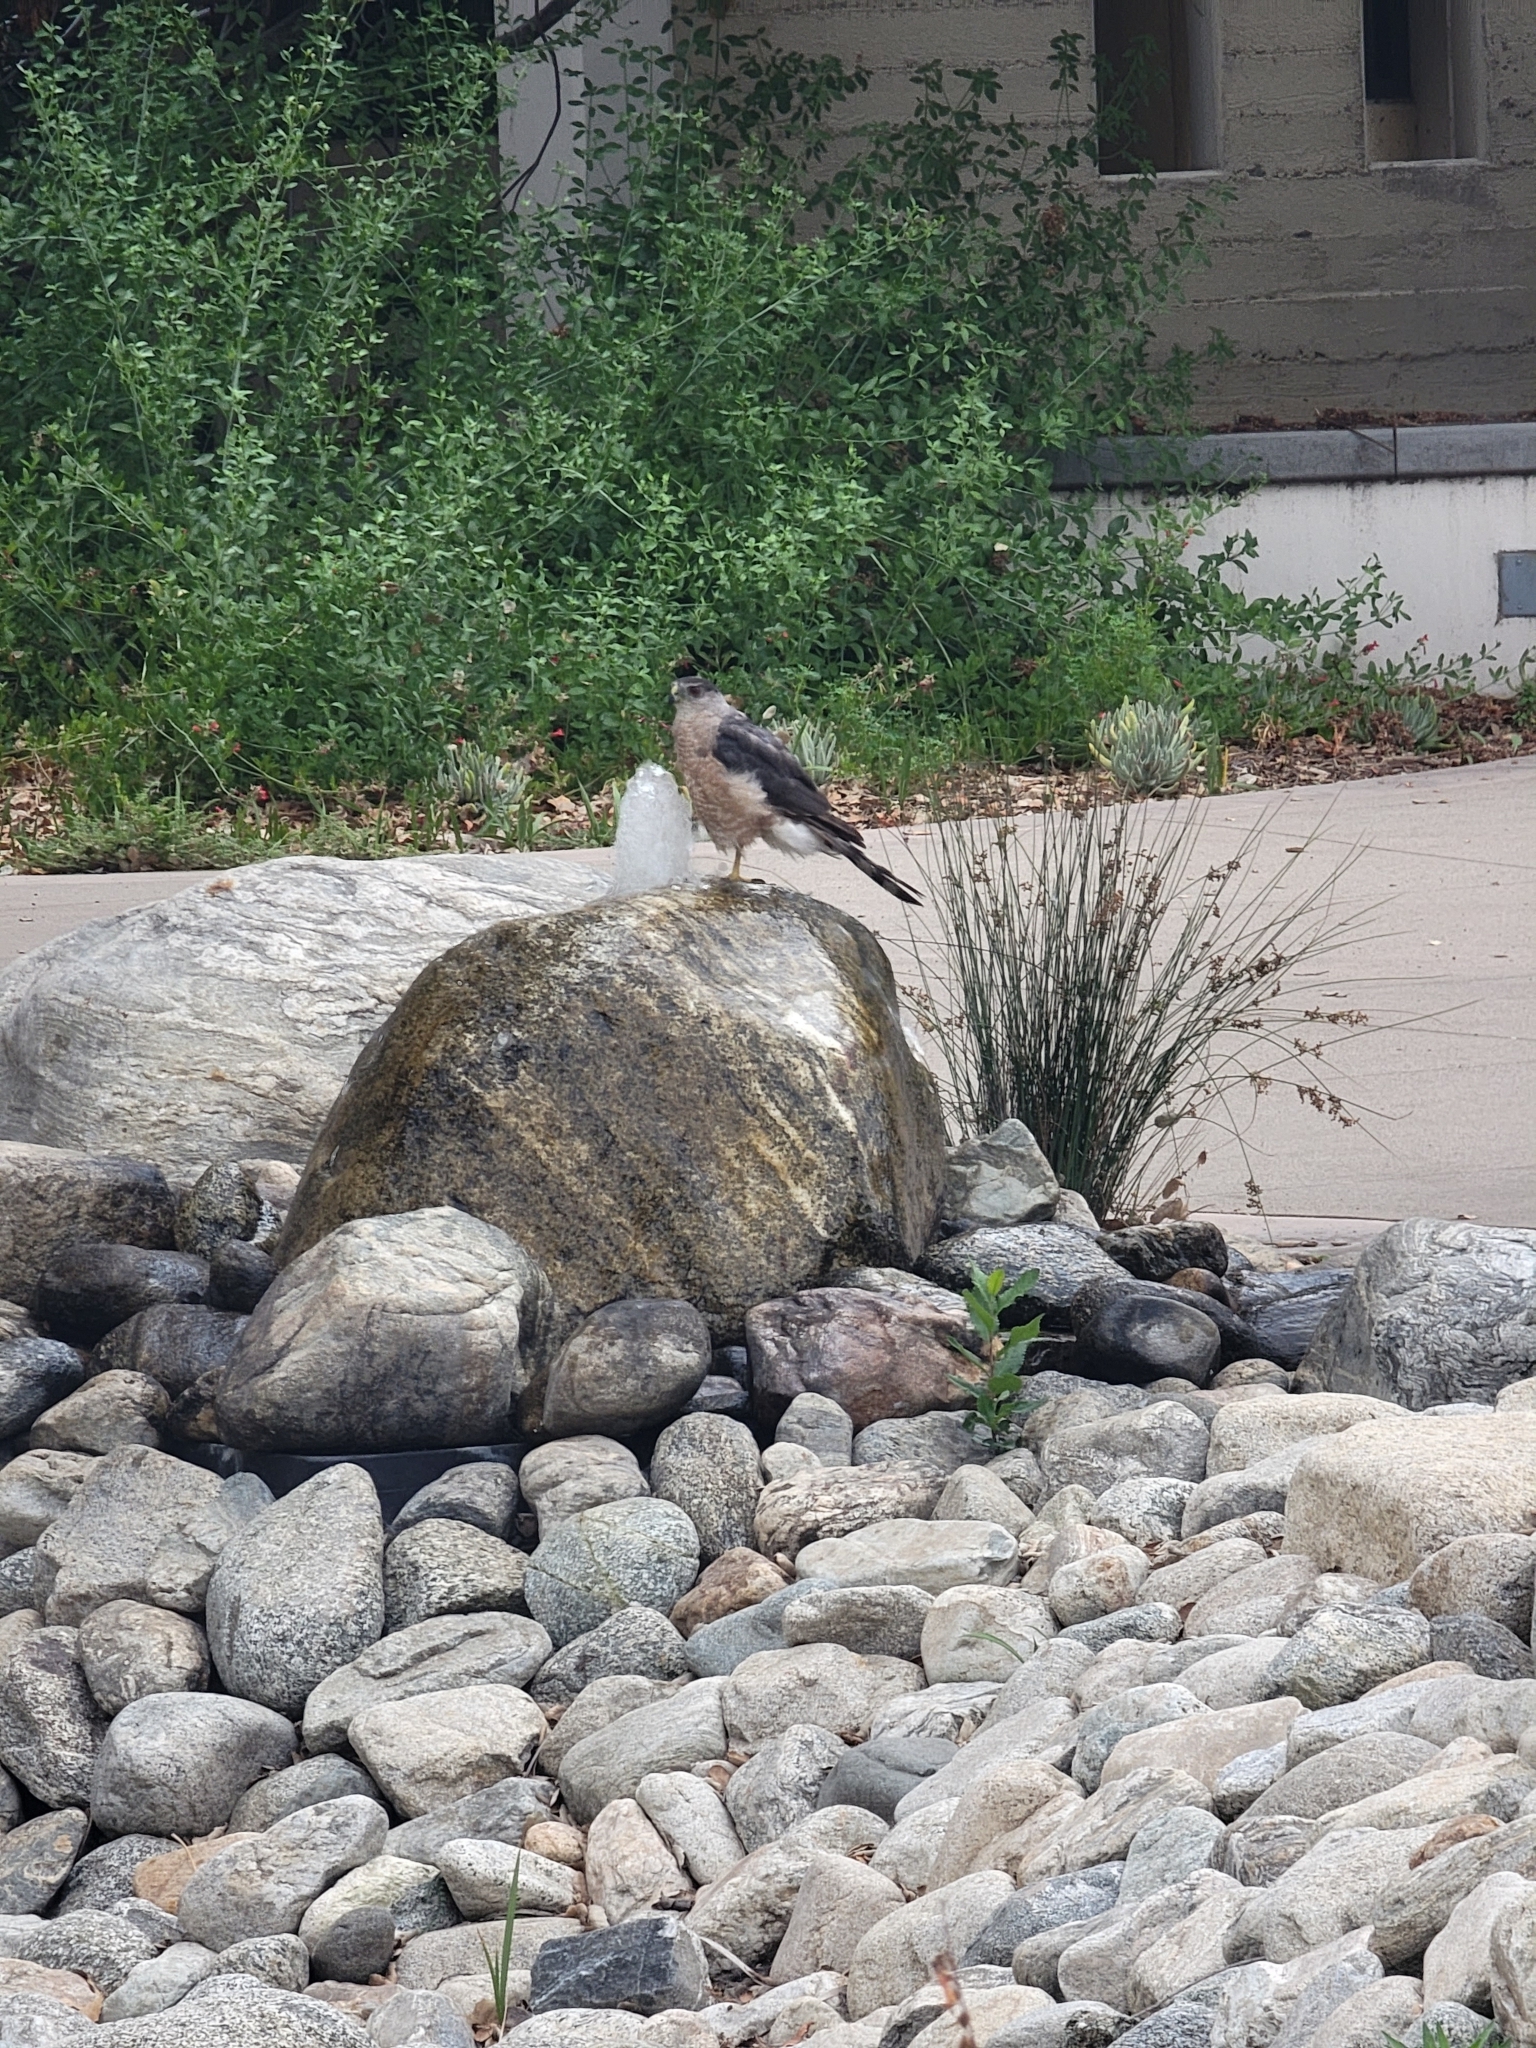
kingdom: Animalia
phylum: Chordata
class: Aves
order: Accipitriformes
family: Accipitridae
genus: Accipiter
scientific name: Accipiter cooperii
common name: Cooper's hawk
